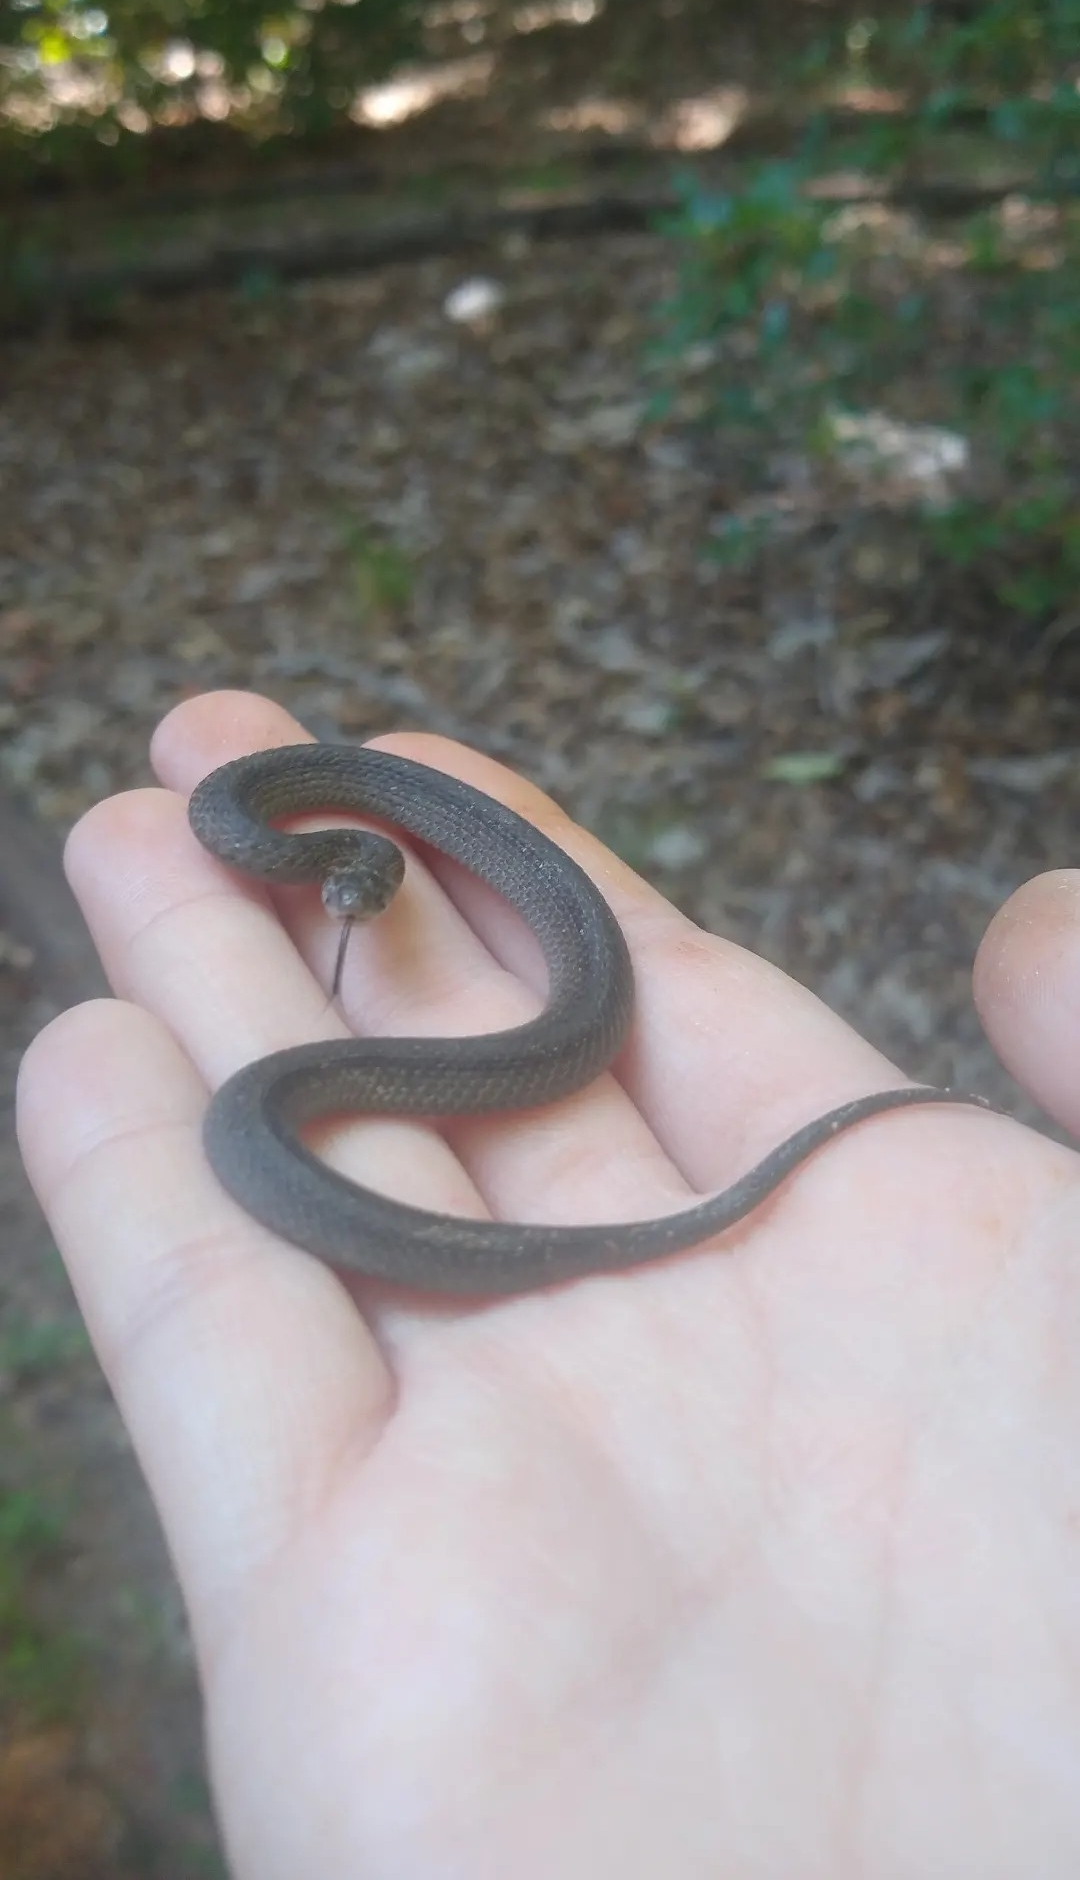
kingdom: Animalia
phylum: Chordata
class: Squamata
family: Colubridae
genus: Storeria
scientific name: Storeria dekayi
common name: (dekay’s) brown snake
